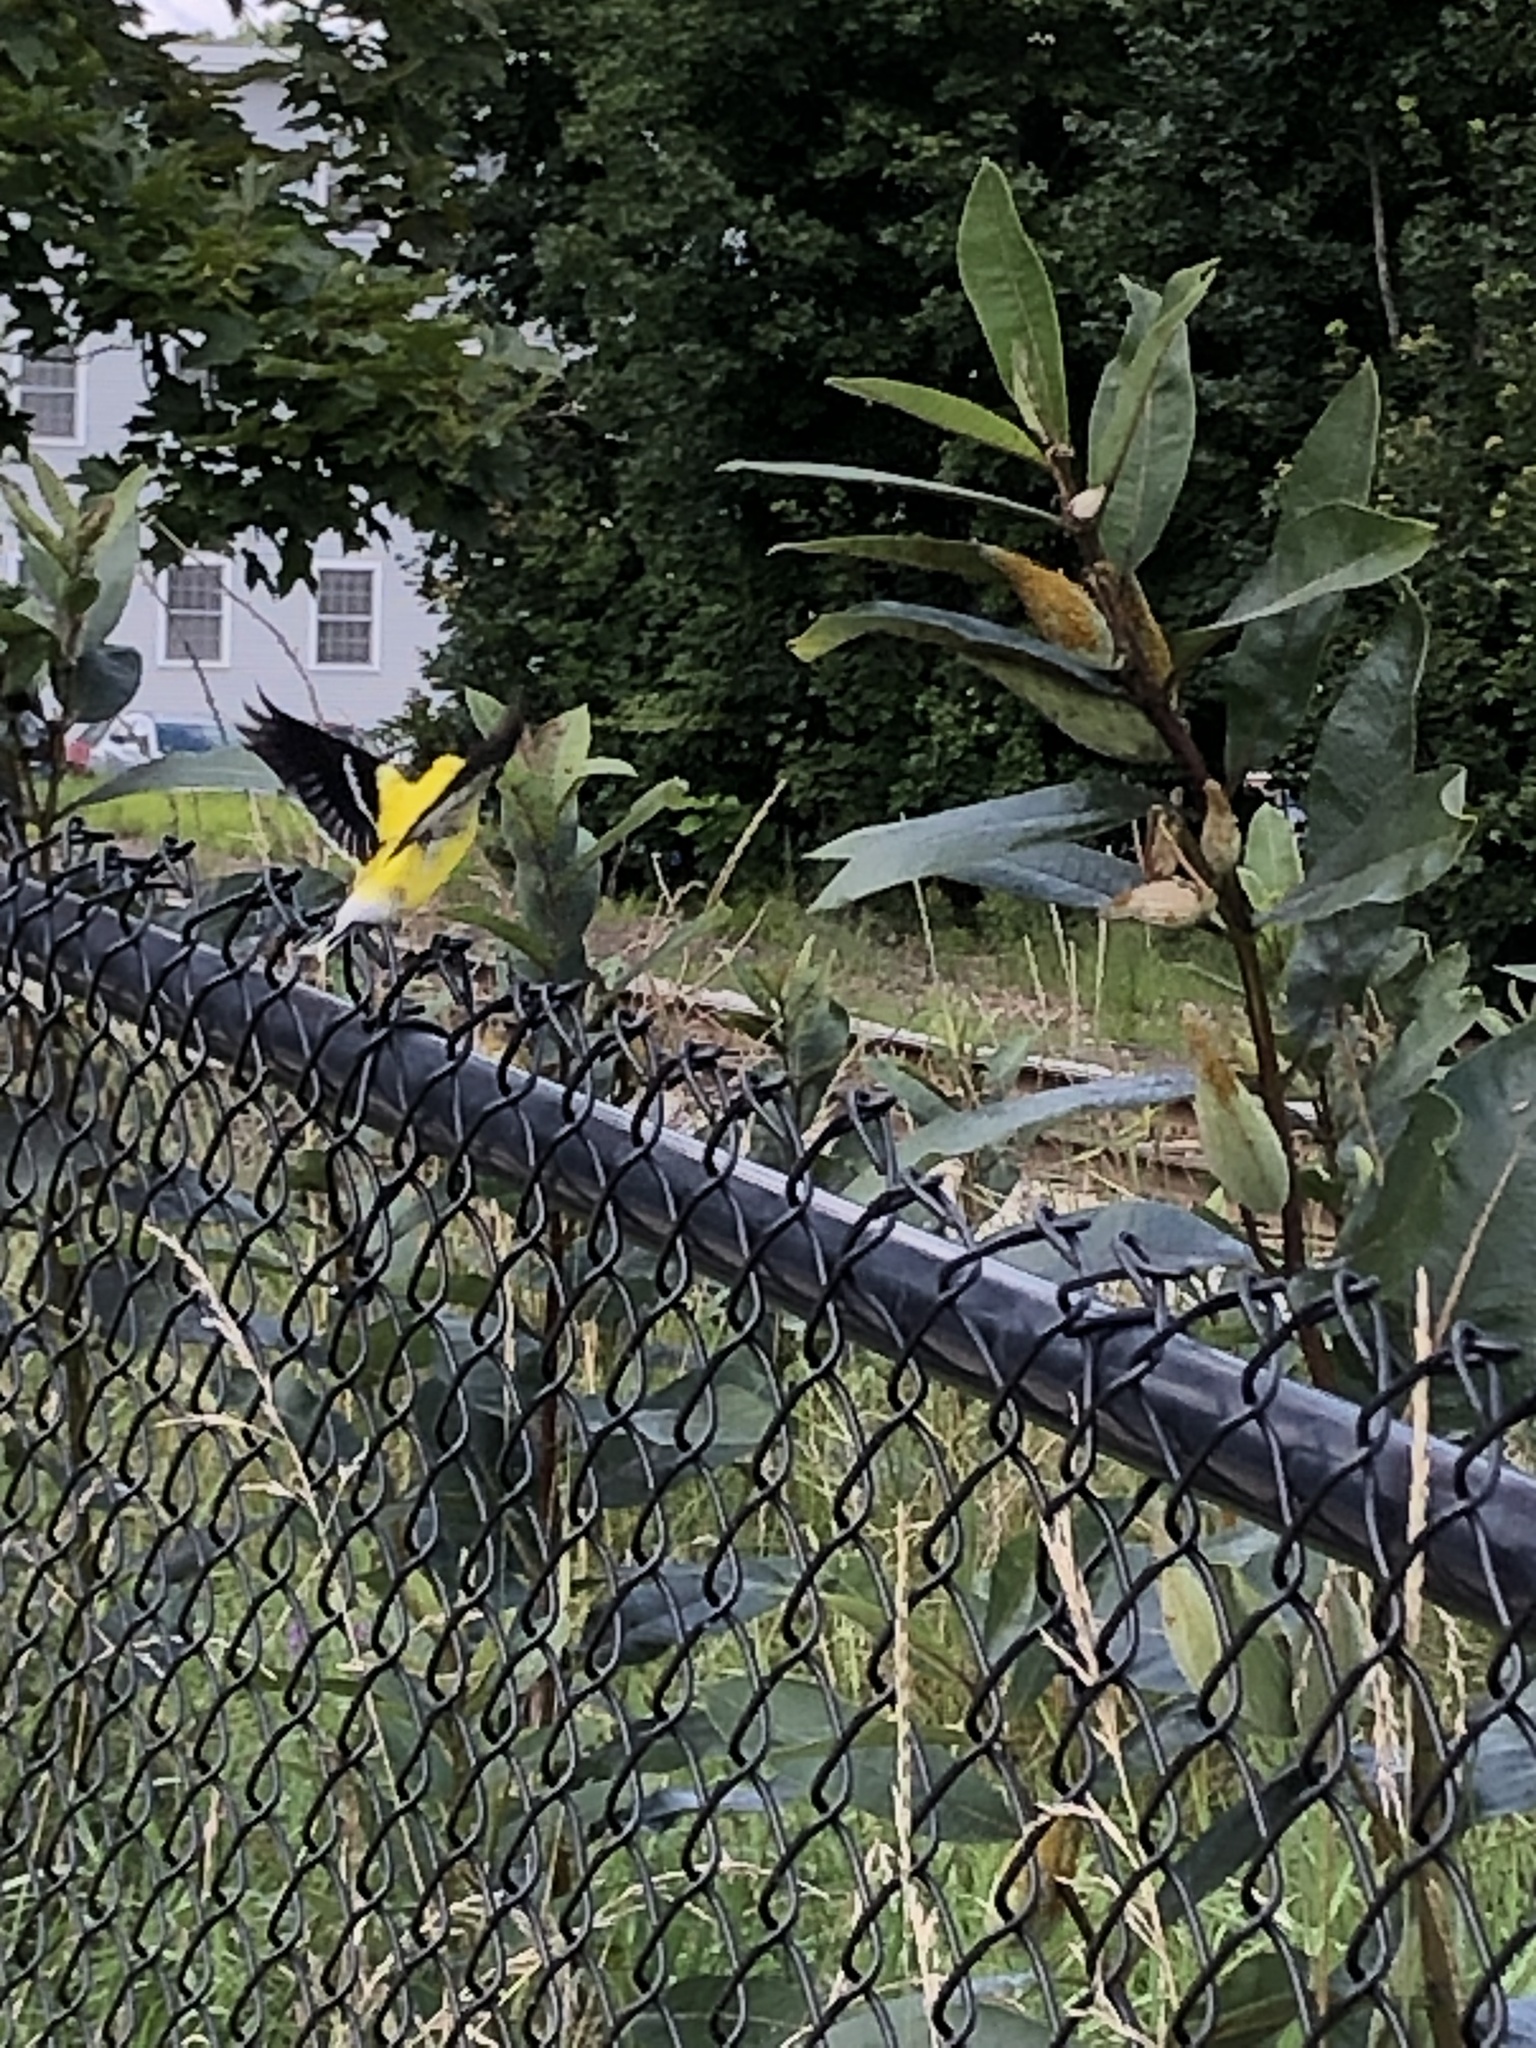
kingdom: Animalia
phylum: Chordata
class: Aves
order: Passeriformes
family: Fringillidae
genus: Spinus
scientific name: Spinus tristis
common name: American goldfinch
